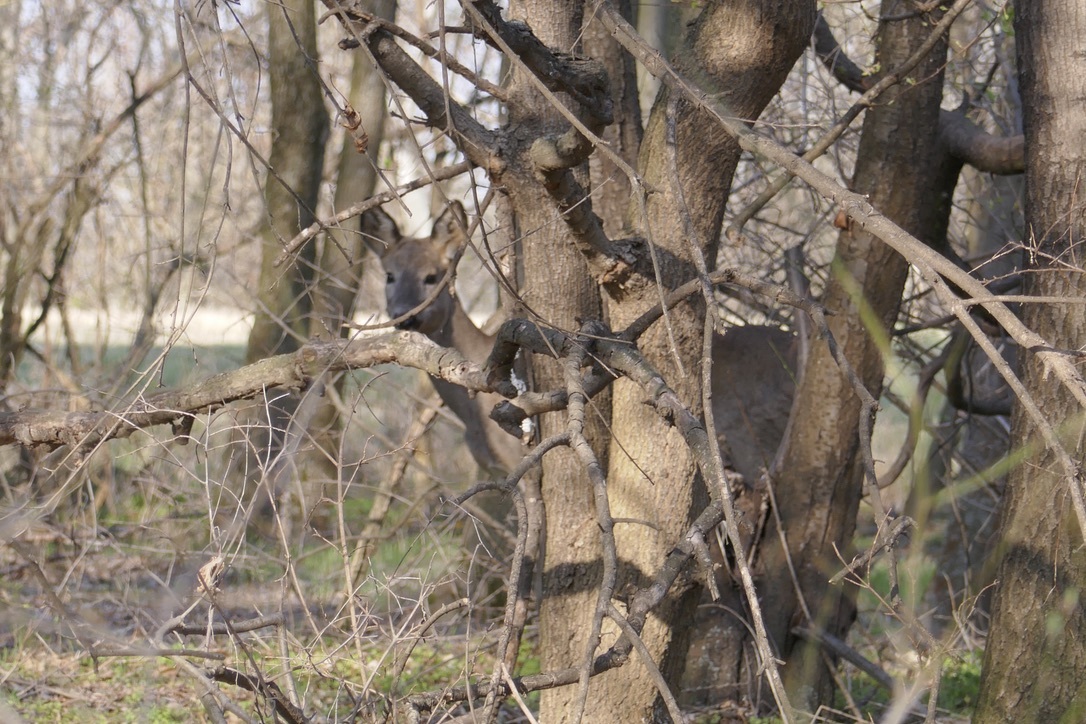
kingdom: Animalia
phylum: Chordata
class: Mammalia
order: Artiodactyla
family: Cervidae
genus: Capreolus
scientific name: Capreolus capreolus
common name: Western roe deer
